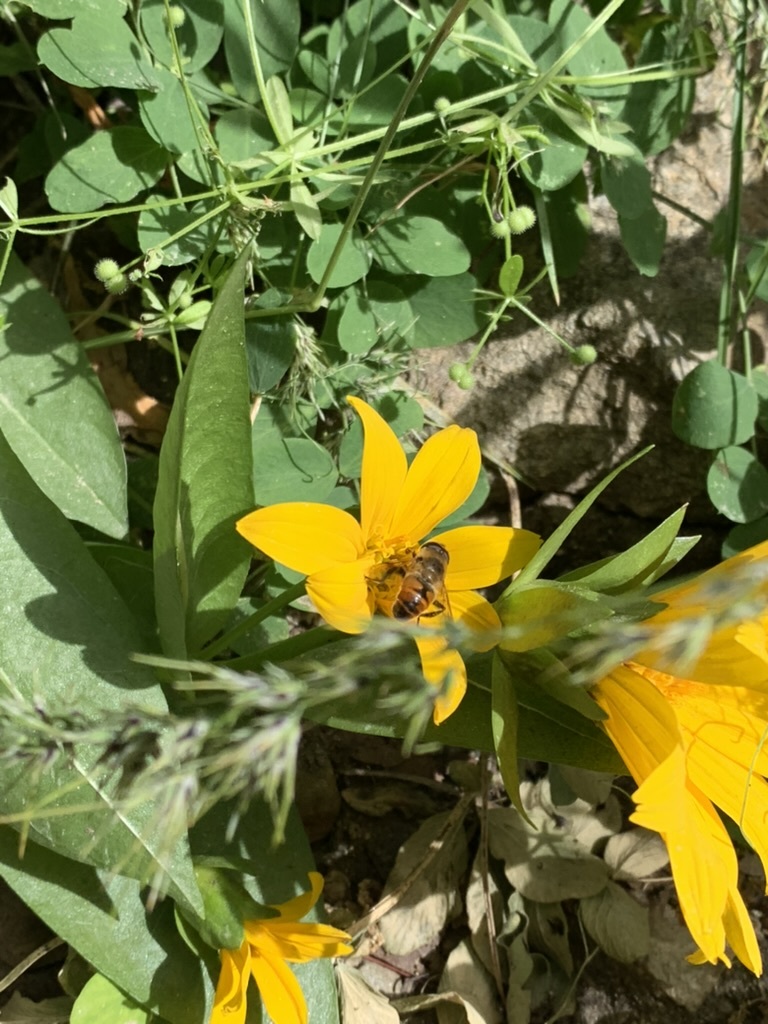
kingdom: Animalia
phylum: Arthropoda
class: Insecta
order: Diptera
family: Syrphidae
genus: Eristalis
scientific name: Eristalis tenax
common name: Drone fly
